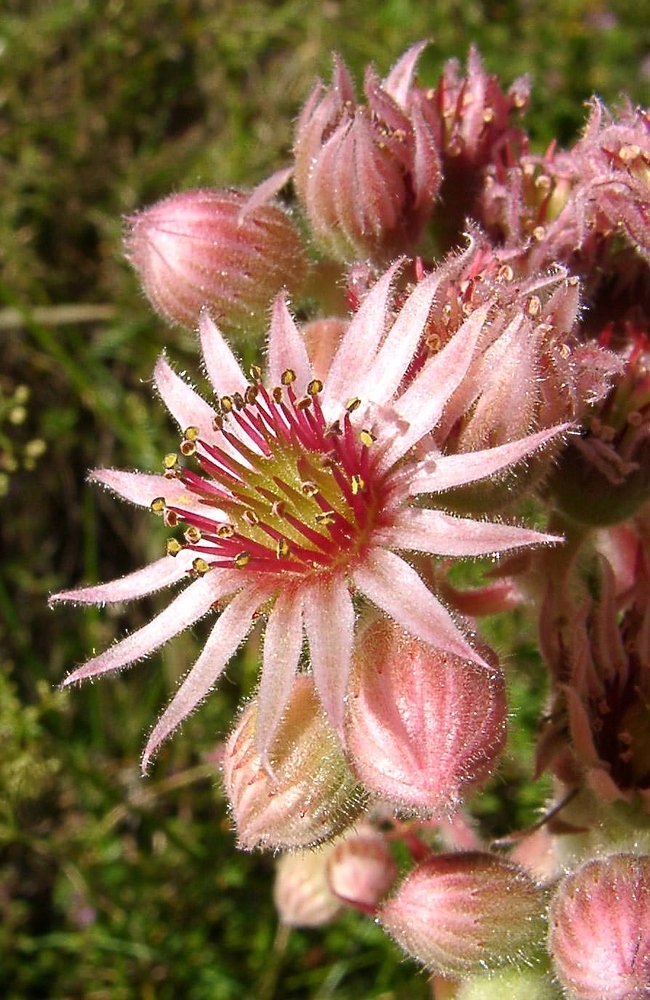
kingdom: Plantae
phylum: Tracheophyta
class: Magnoliopsida
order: Saxifragales
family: Crassulaceae
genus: Sempervivum
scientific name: Sempervivum tectorum
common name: House-leek
